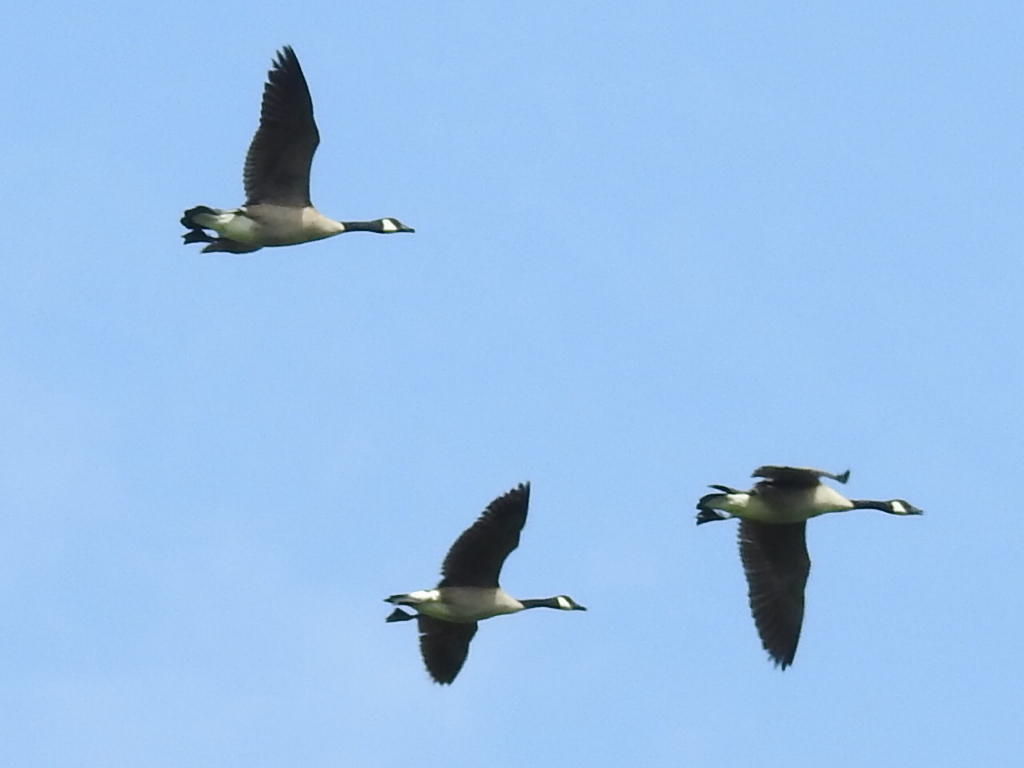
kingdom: Animalia
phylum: Chordata
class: Aves
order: Anseriformes
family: Anatidae
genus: Branta
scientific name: Branta canadensis
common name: Canada goose
